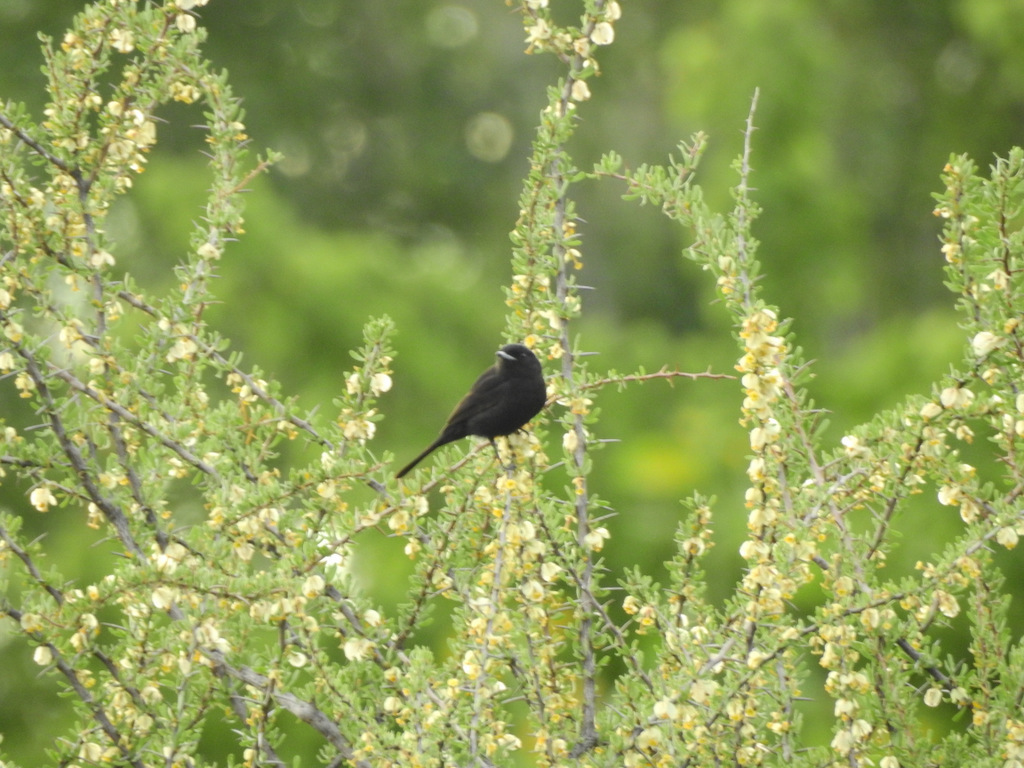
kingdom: Animalia
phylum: Chordata
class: Aves
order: Passeriformes
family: Tyrannidae
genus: Knipolegus
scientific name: Knipolegus aterrimus
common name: White-winged black tyrant
